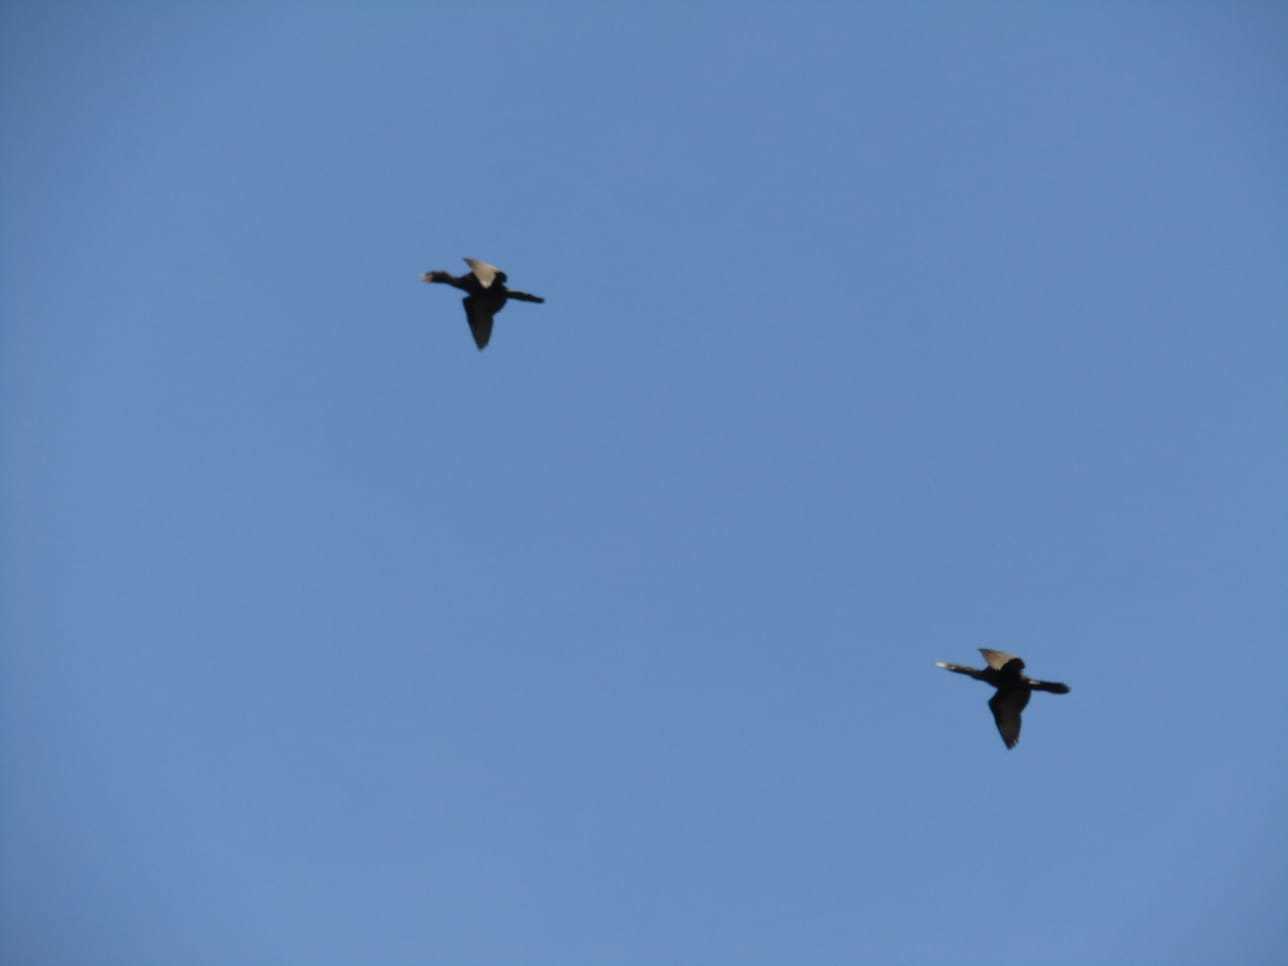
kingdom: Animalia
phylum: Chordata
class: Aves
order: Suliformes
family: Phalacrocoracidae
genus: Phalacrocorax
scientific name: Phalacrocorax brasilianus
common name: Neotropic cormorant
